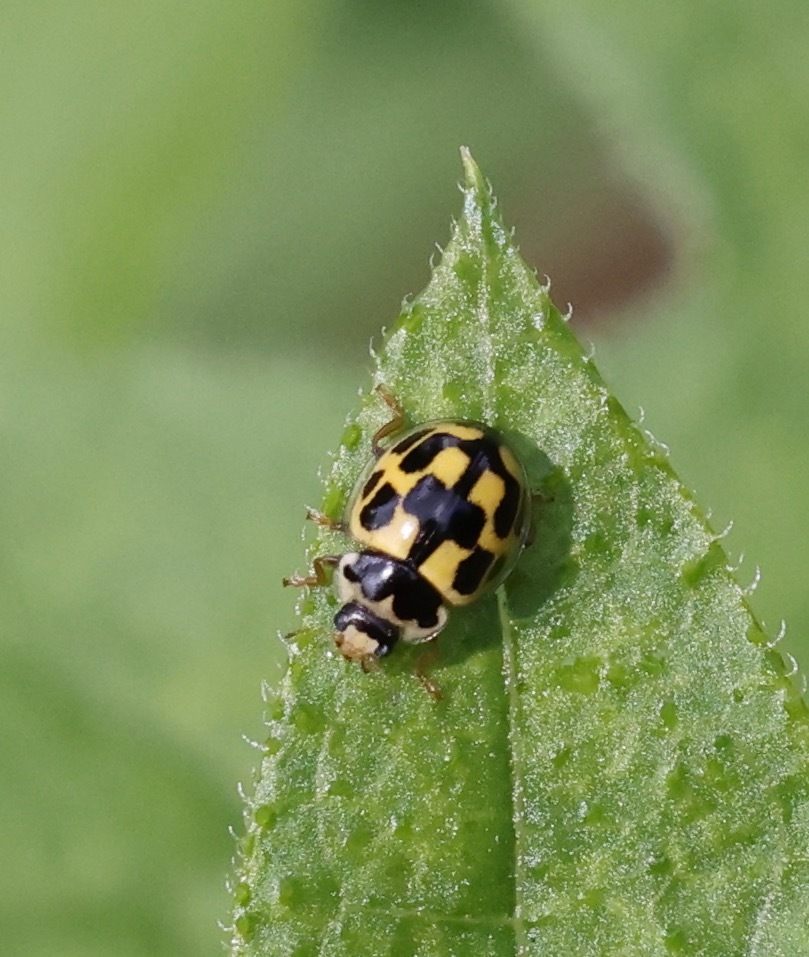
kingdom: Animalia
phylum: Arthropoda
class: Insecta
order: Coleoptera
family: Coccinellidae
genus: Propylaea
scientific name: Propylaea quatuordecimpunctata
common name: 14-spotted ladybird beetle
